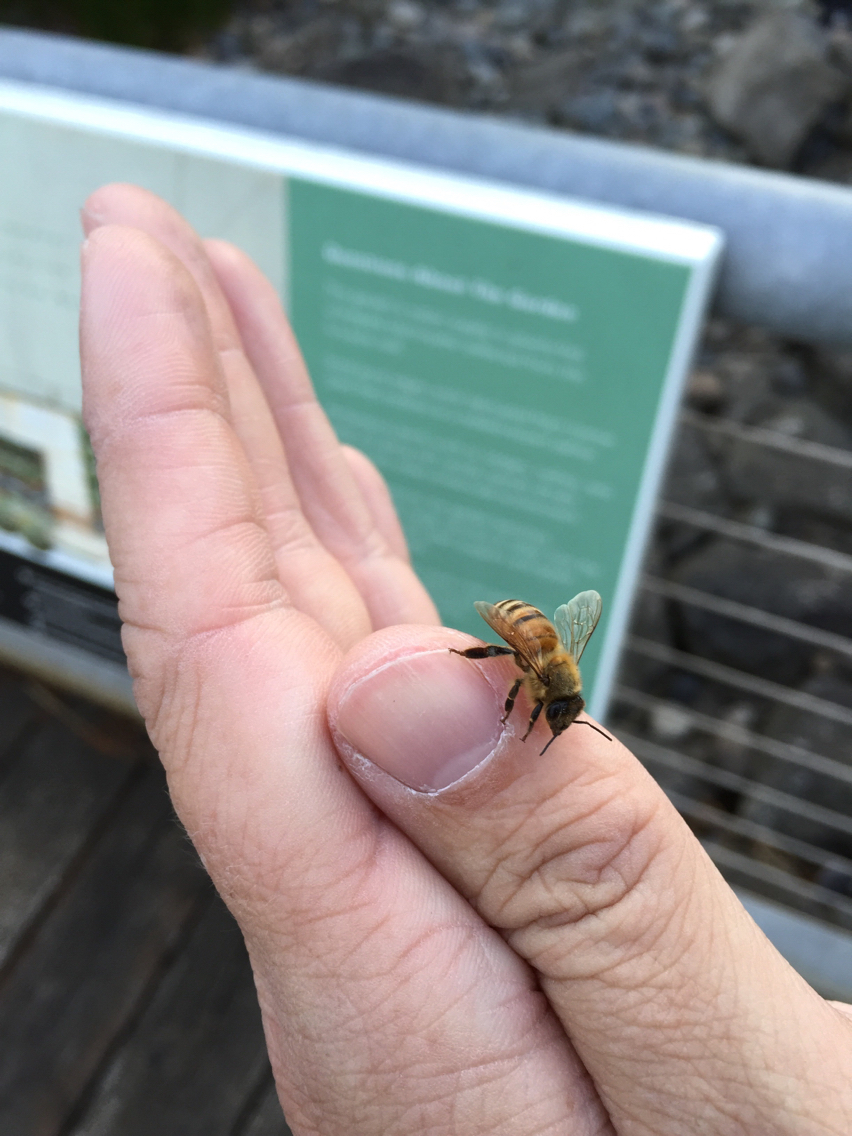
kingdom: Animalia
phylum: Arthropoda
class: Insecta
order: Hymenoptera
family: Apidae
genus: Apis
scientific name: Apis mellifera
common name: Honey bee
